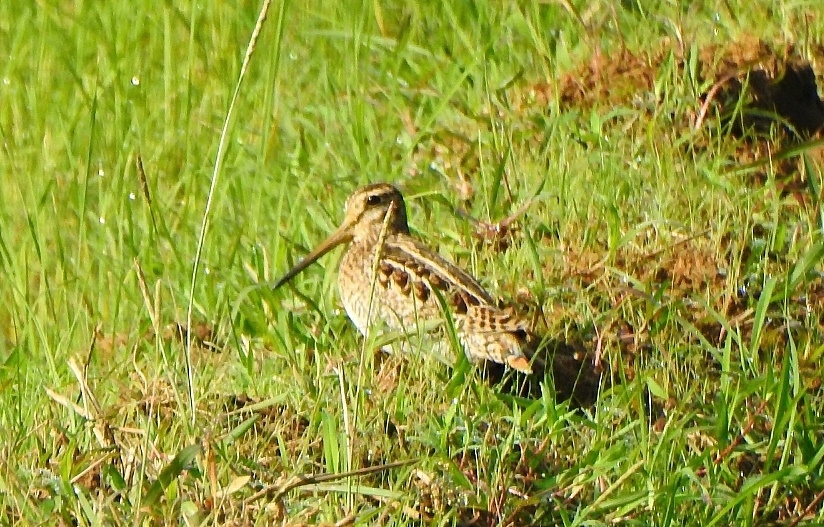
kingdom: Animalia
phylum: Chordata
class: Aves
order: Charadriiformes
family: Scolopacidae
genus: Gallinago
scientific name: Gallinago stenura
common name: Pin-tailed snipe
